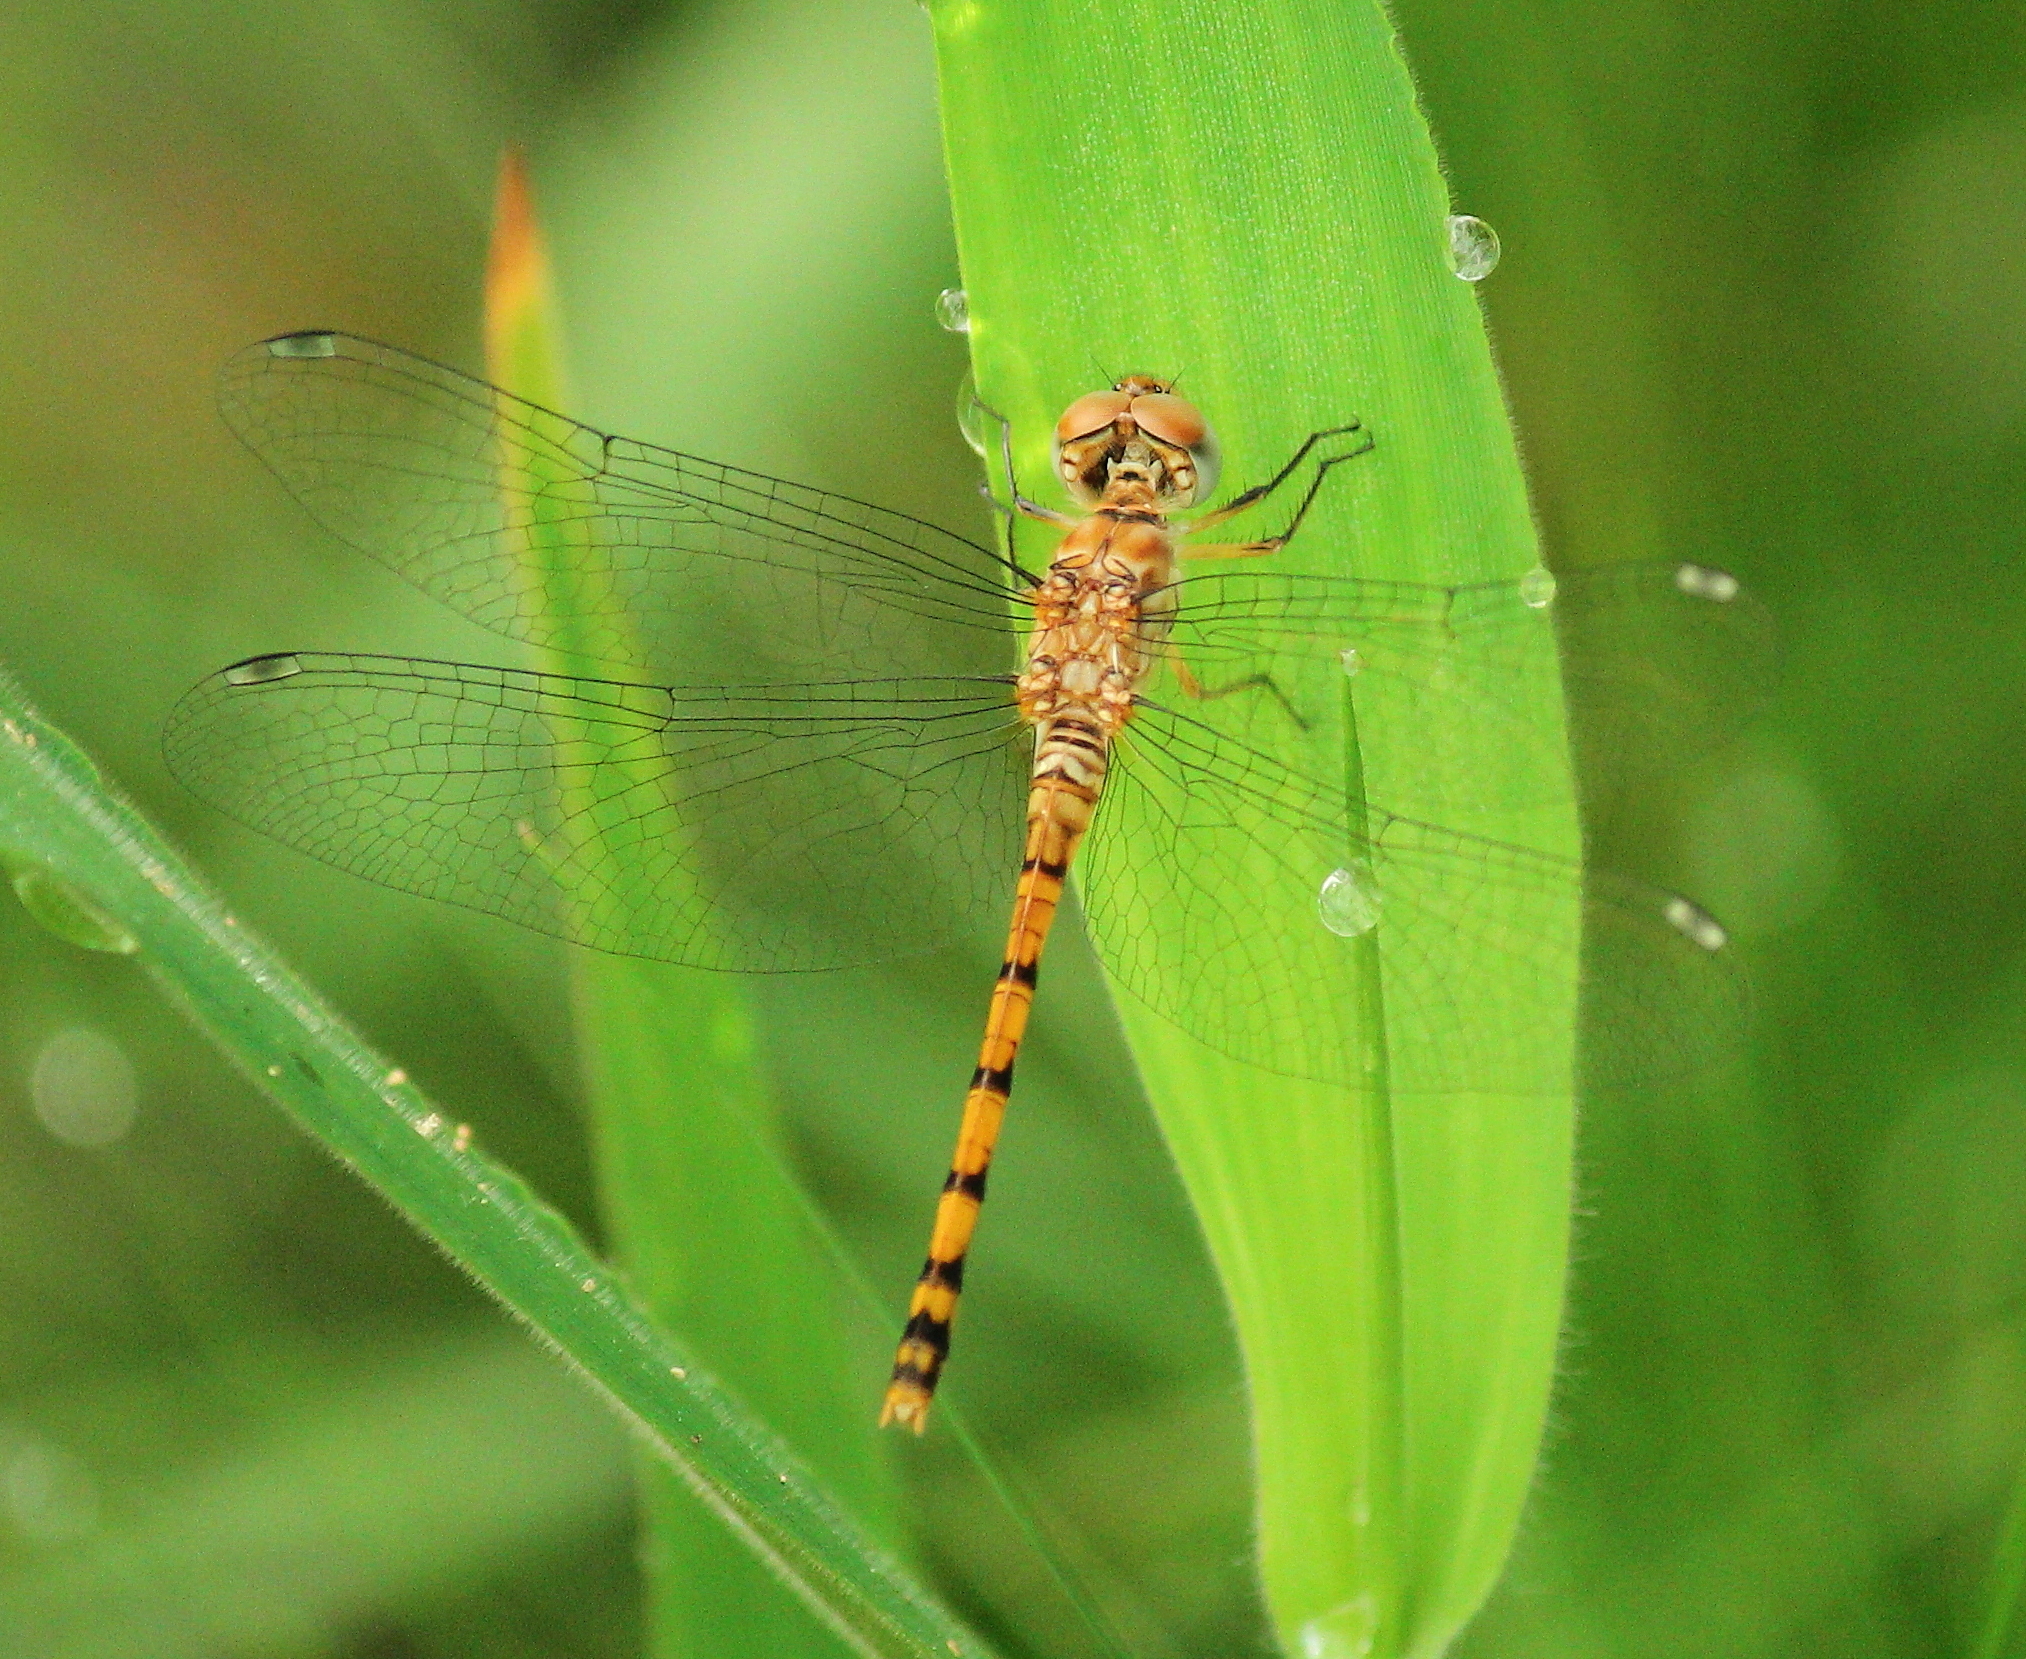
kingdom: Animalia
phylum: Arthropoda
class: Insecta
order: Odonata
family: Libellulidae
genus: Sympetrum
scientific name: Sympetrum ambiguum
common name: Blue-faced meadowhawk
